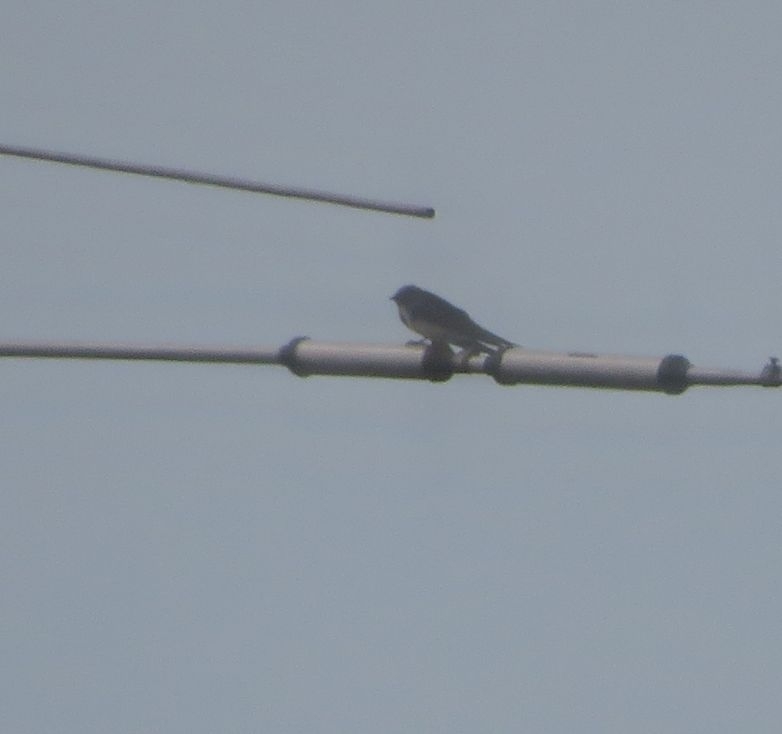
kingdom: Animalia
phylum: Chordata
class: Aves
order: Passeriformes
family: Hirundinidae
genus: Progne
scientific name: Progne chalybea
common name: Grey-breasted martin
